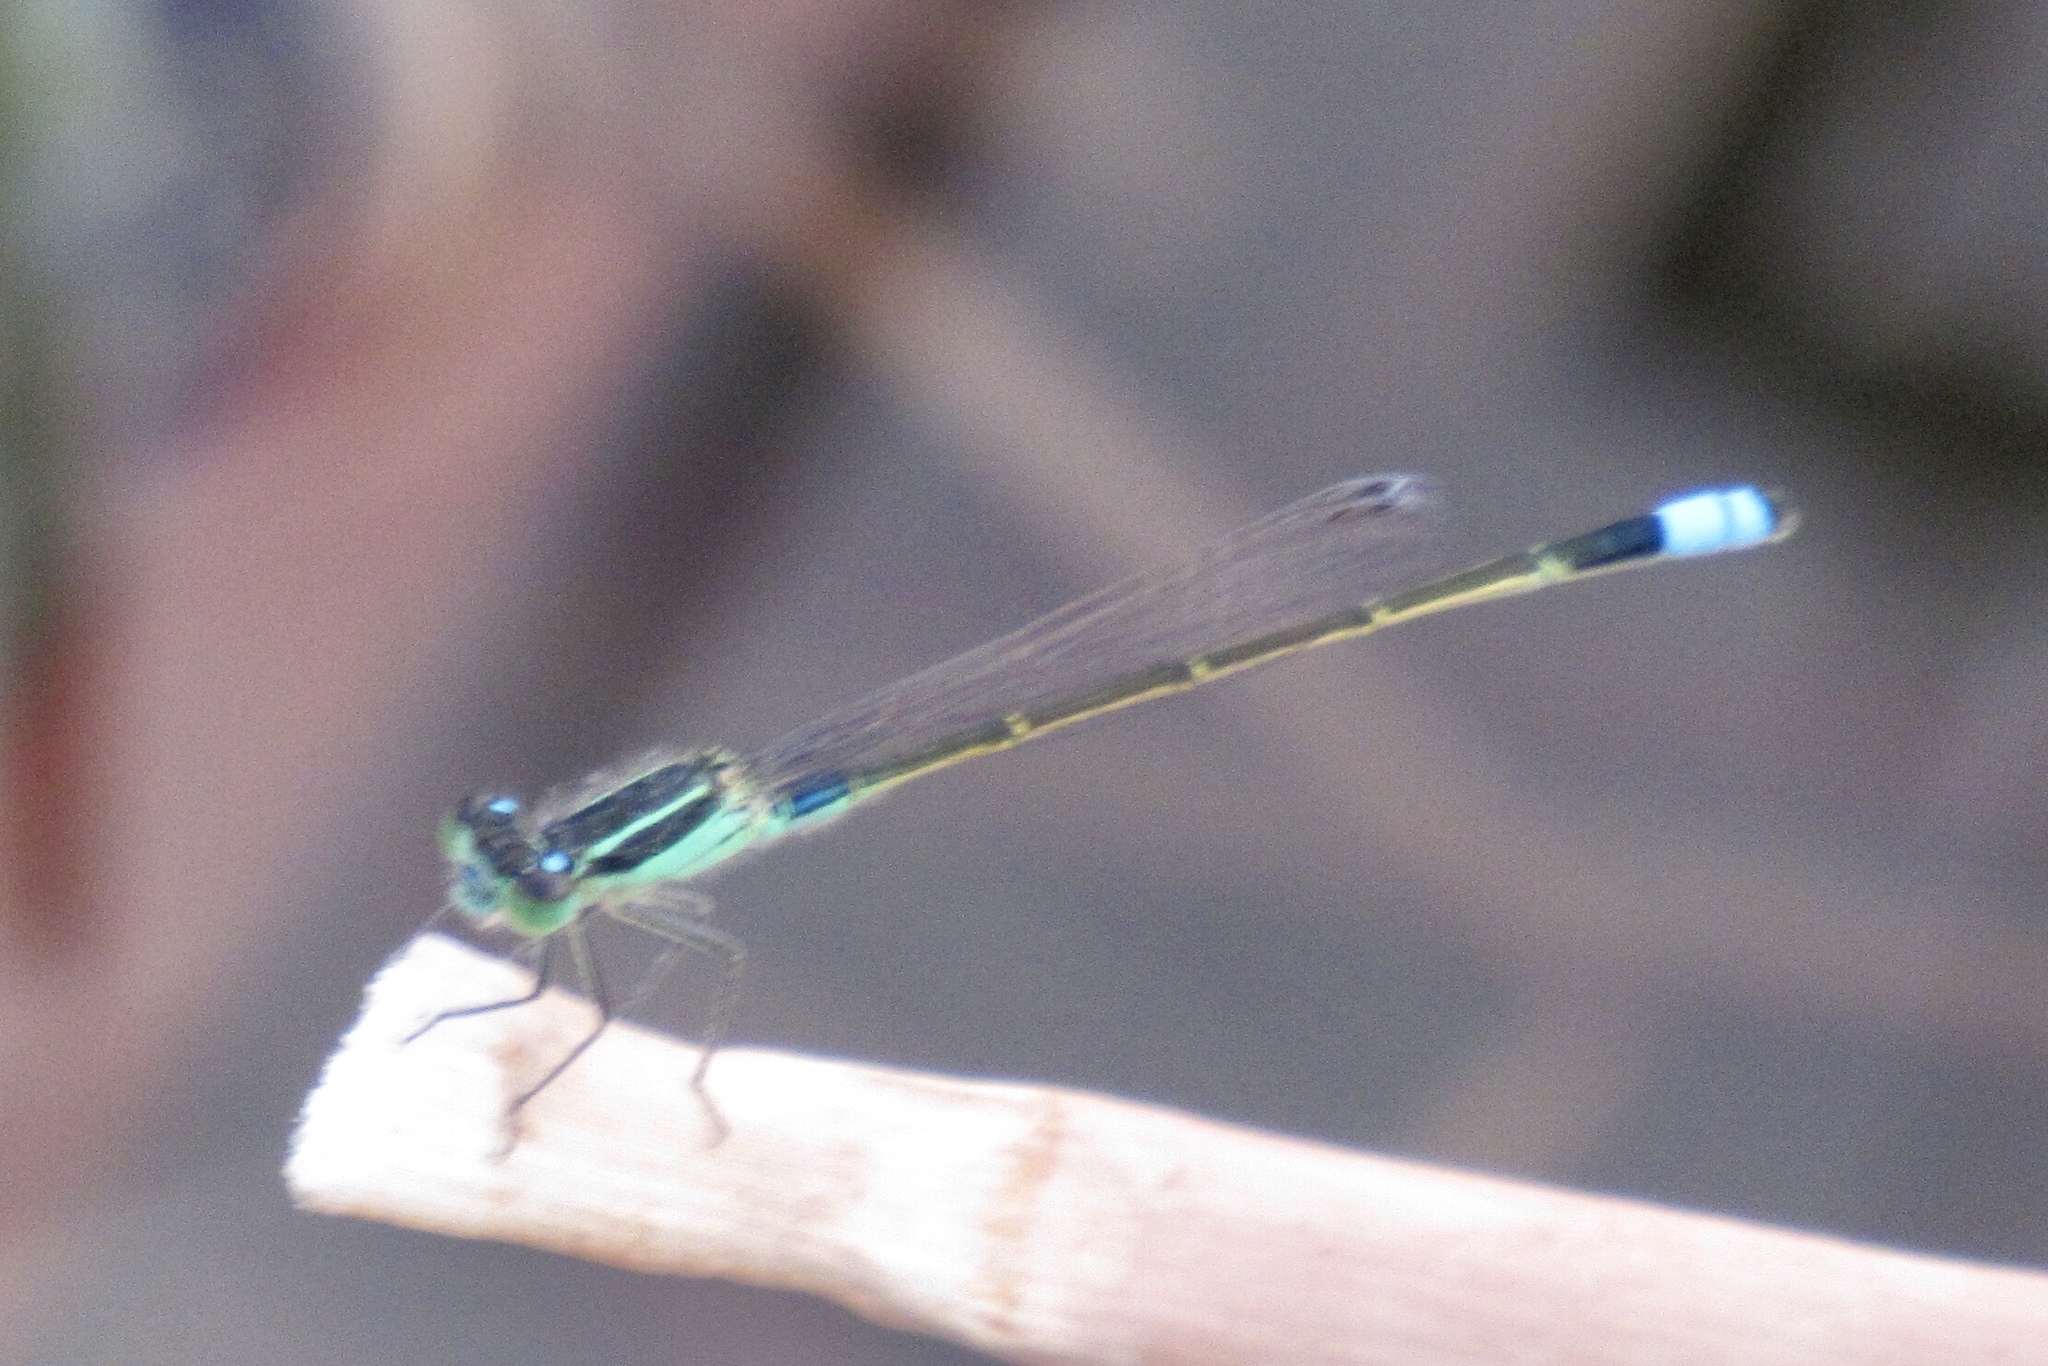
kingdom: Animalia
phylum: Arthropoda
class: Insecta
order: Odonata
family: Coenagrionidae
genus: Ischnura
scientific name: Ischnura ramburii
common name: Rambur's forktail
